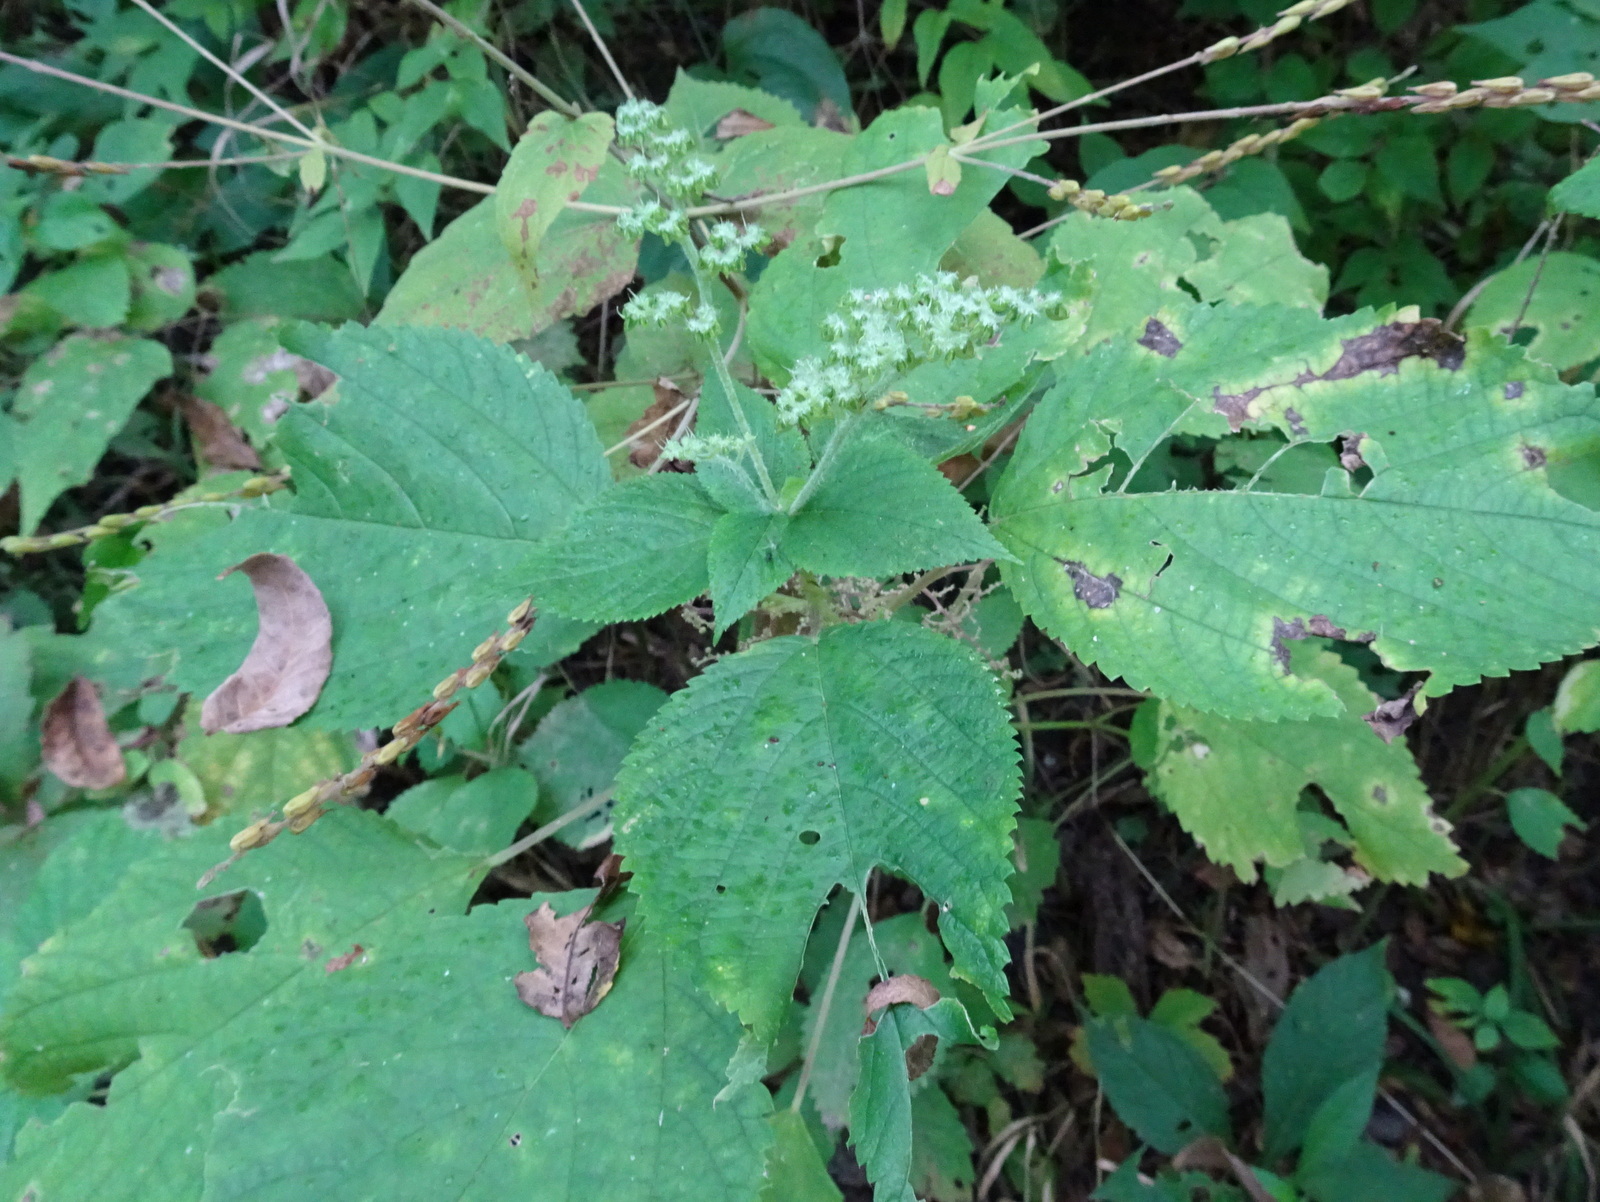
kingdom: Plantae
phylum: Tracheophyta
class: Magnoliopsida
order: Rosales
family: Urticaceae
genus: Laportea
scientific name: Laportea canadensis
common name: Canada nettle
